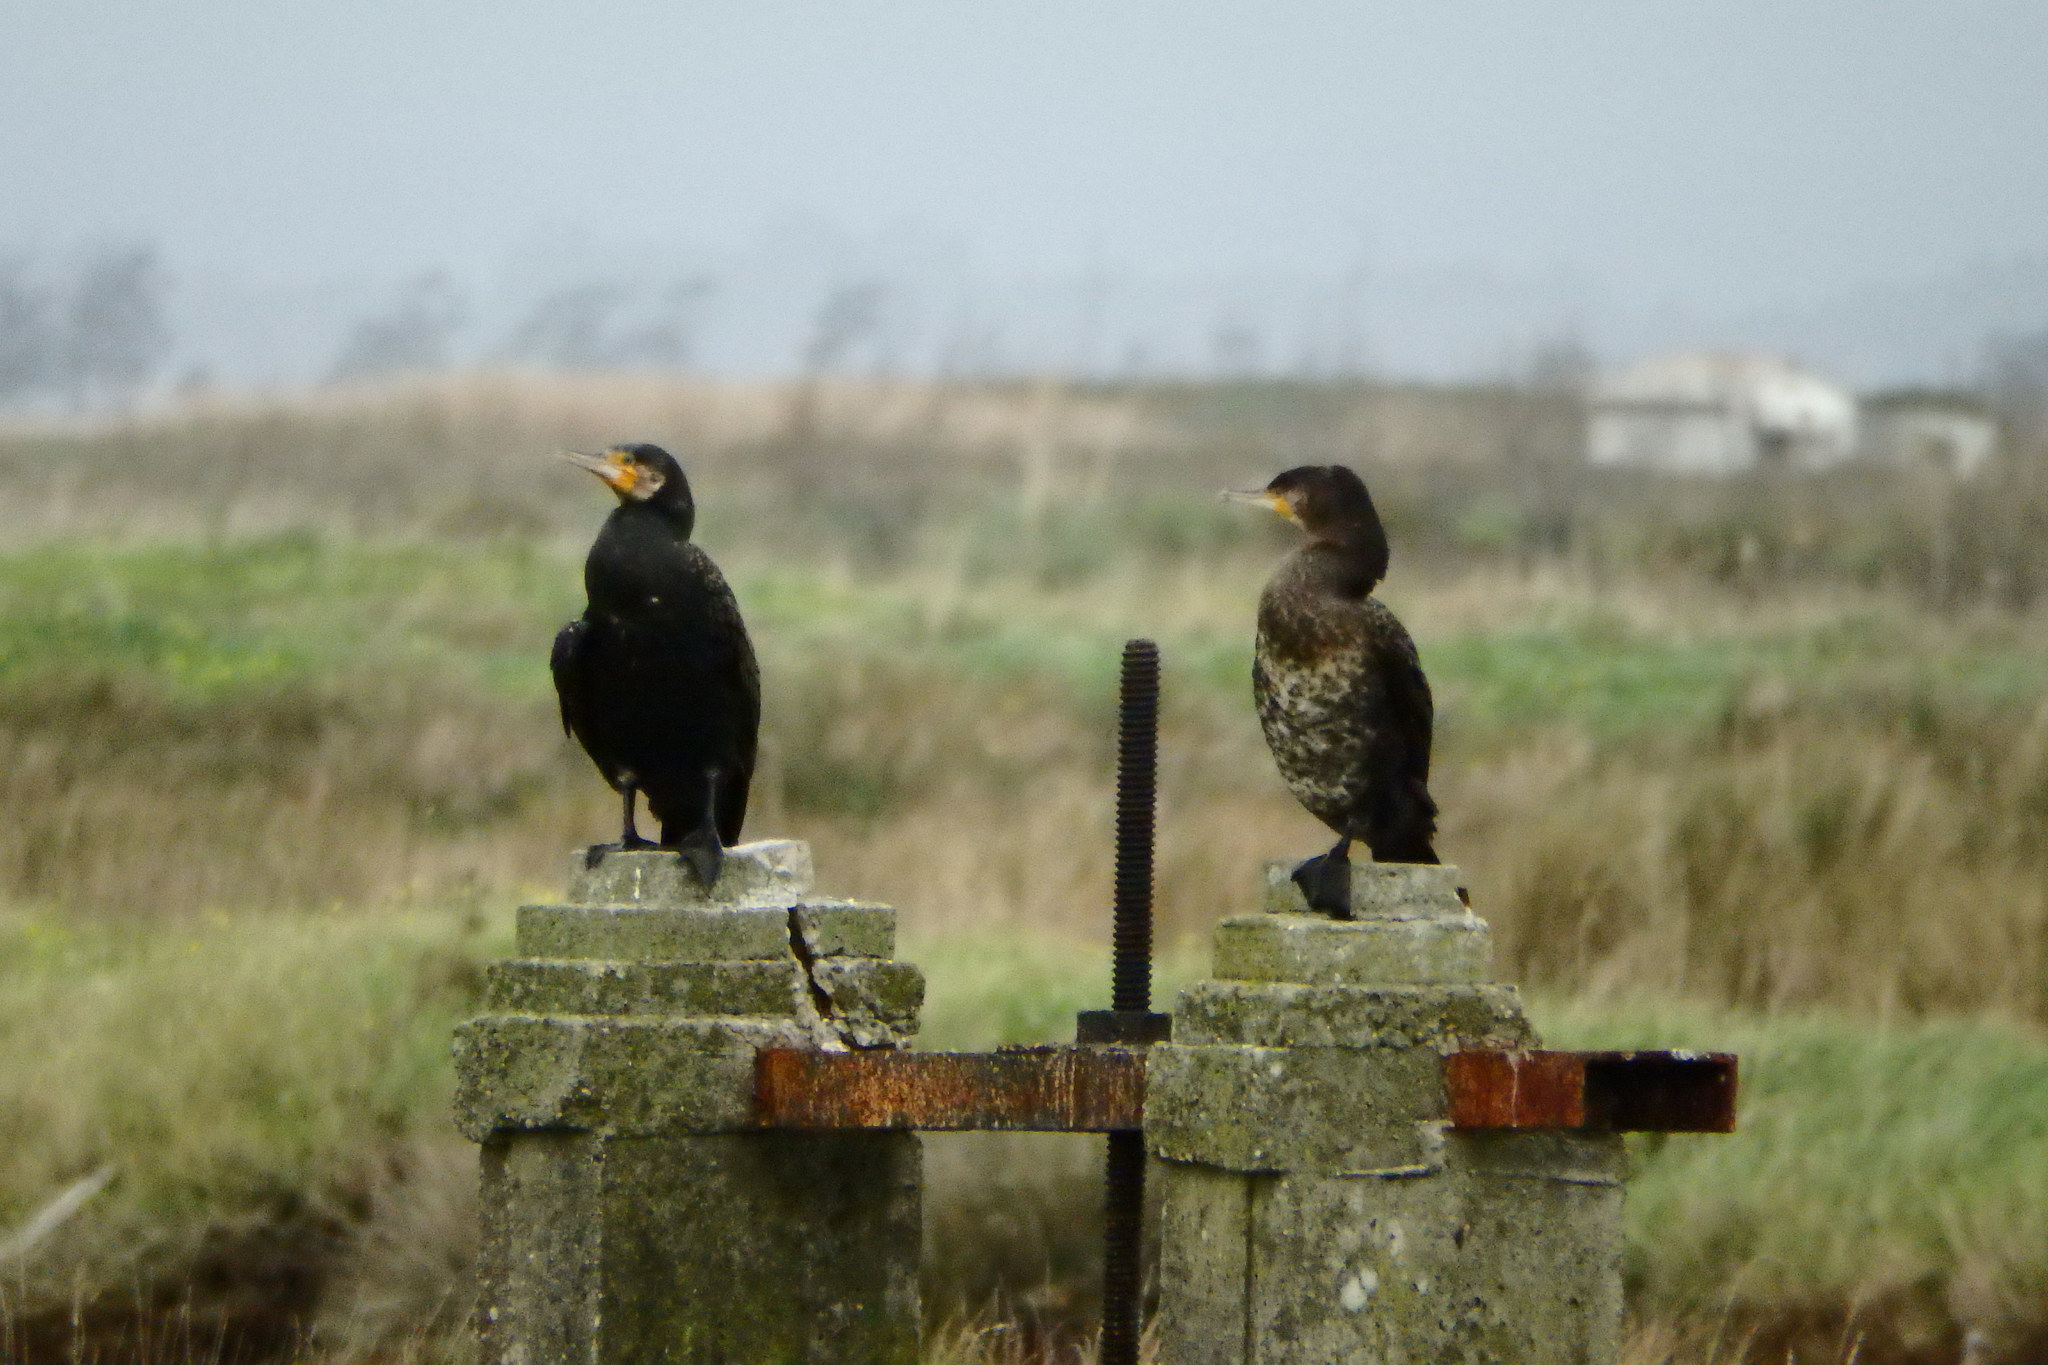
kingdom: Animalia
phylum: Chordata
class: Aves
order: Suliformes
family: Phalacrocoracidae
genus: Phalacrocorax
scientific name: Phalacrocorax carbo
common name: Great cormorant
